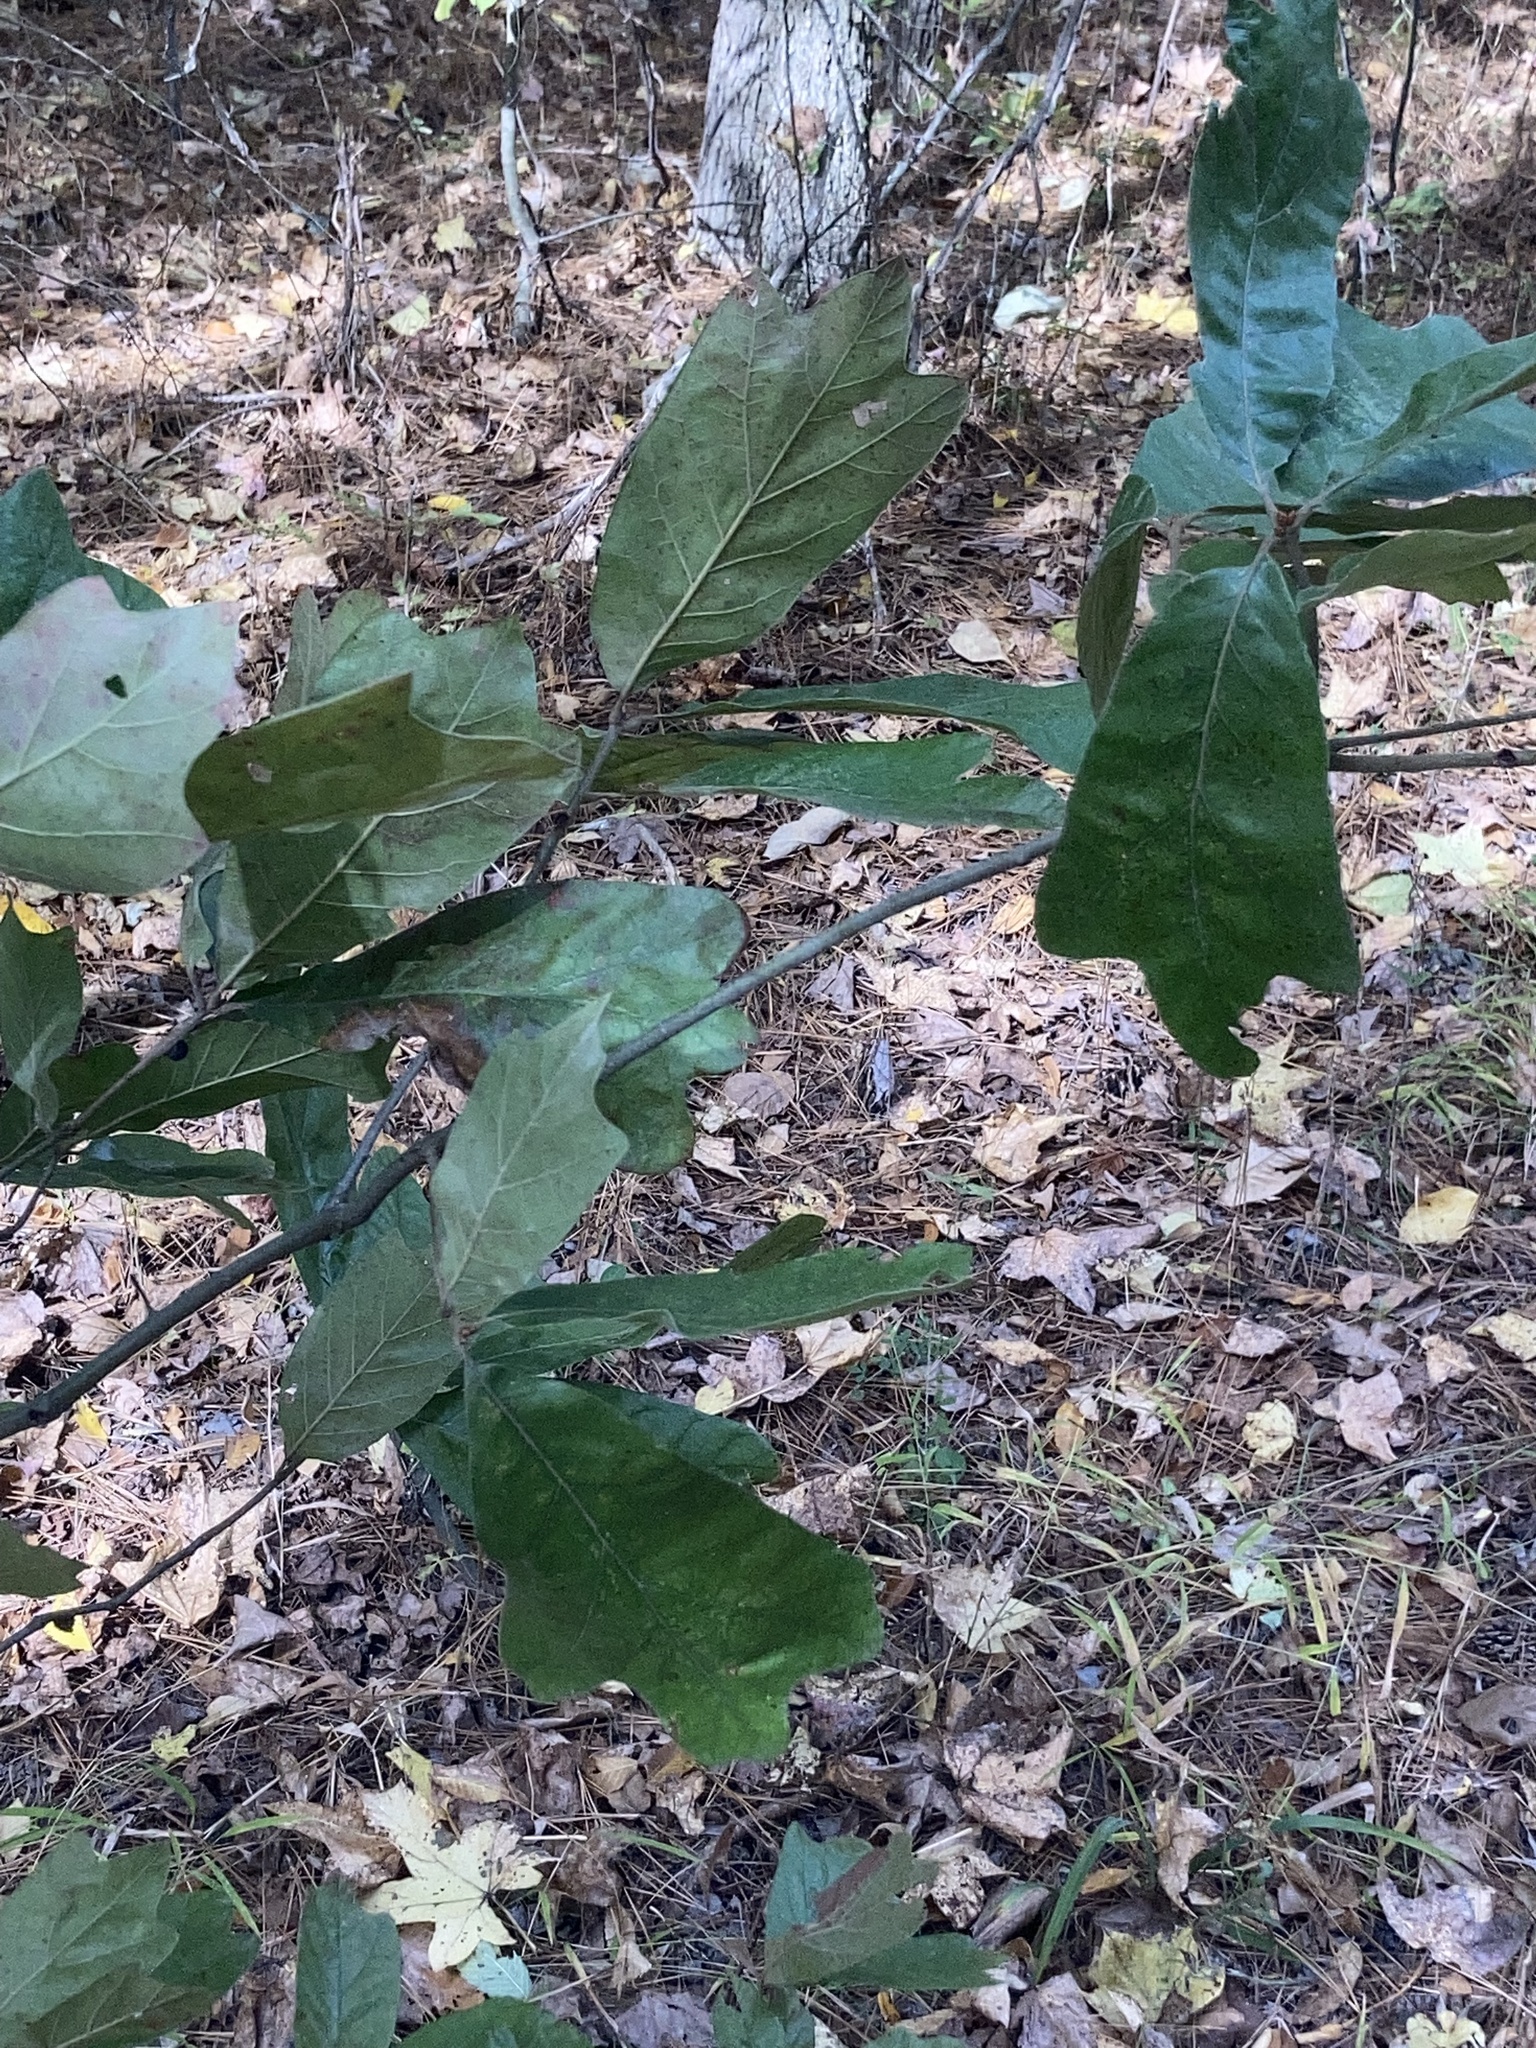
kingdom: Plantae
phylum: Tracheophyta
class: Magnoliopsida
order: Fagales
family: Fagaceae
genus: Quercus
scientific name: Quercus falcata
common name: Southern red oak
